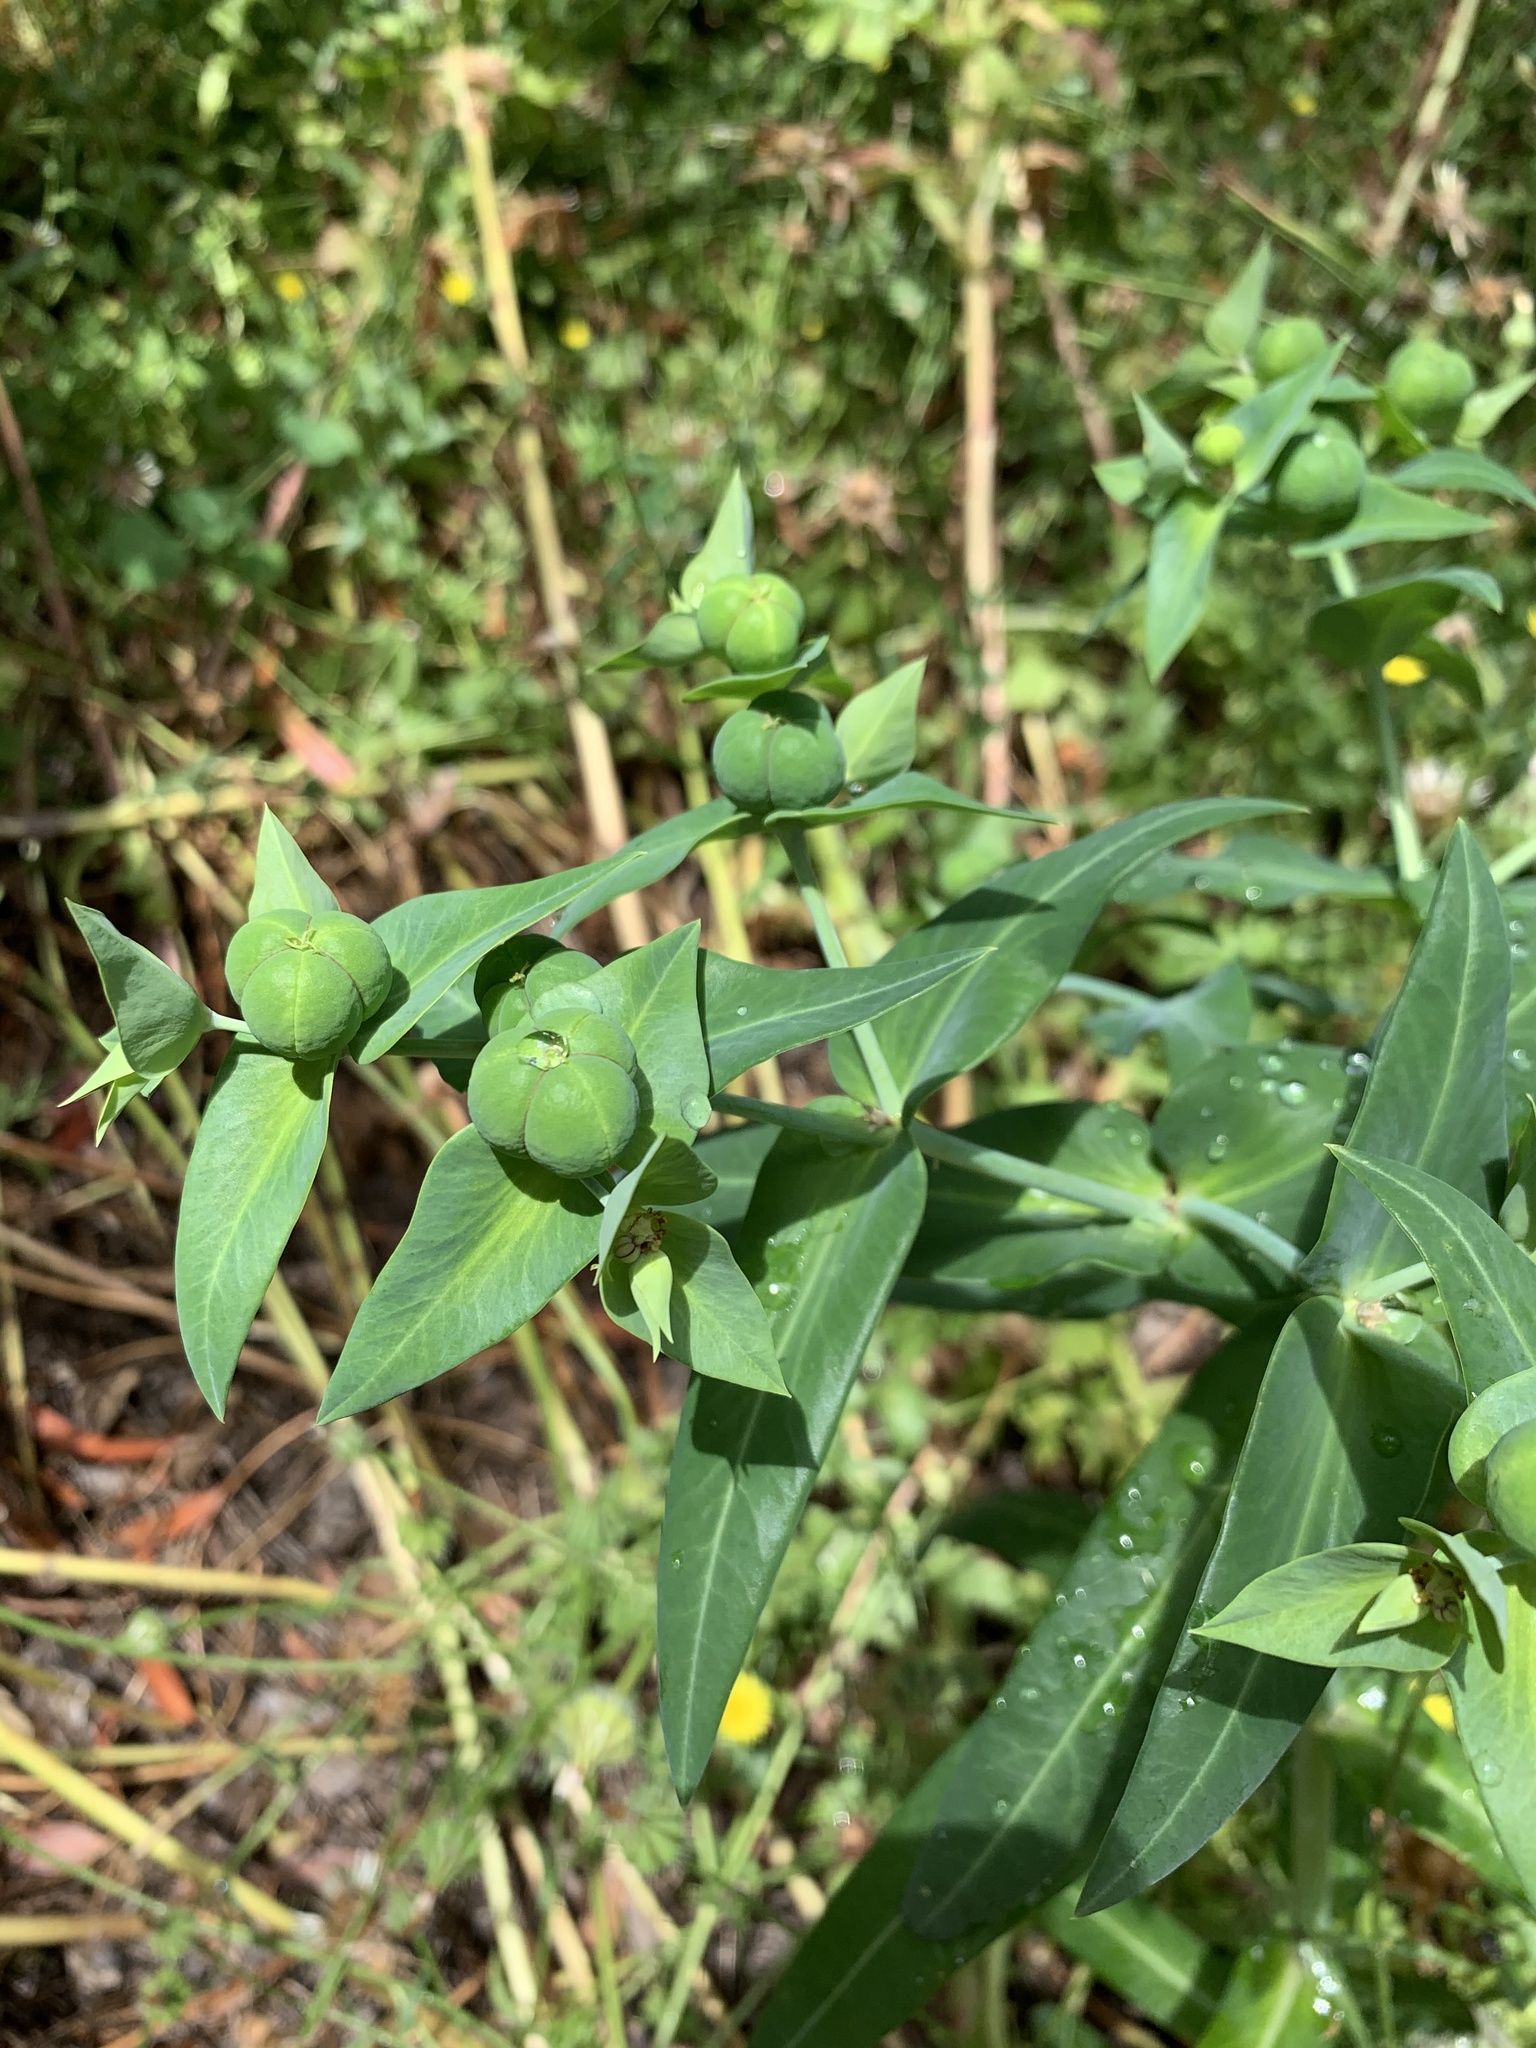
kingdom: Plantae
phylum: Tracheophyta
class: Magnoliopsida
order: Malpighiales
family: Euphorbiaceae
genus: Euphorbia
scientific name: Euphorbia lathyris
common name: Caper spurge
